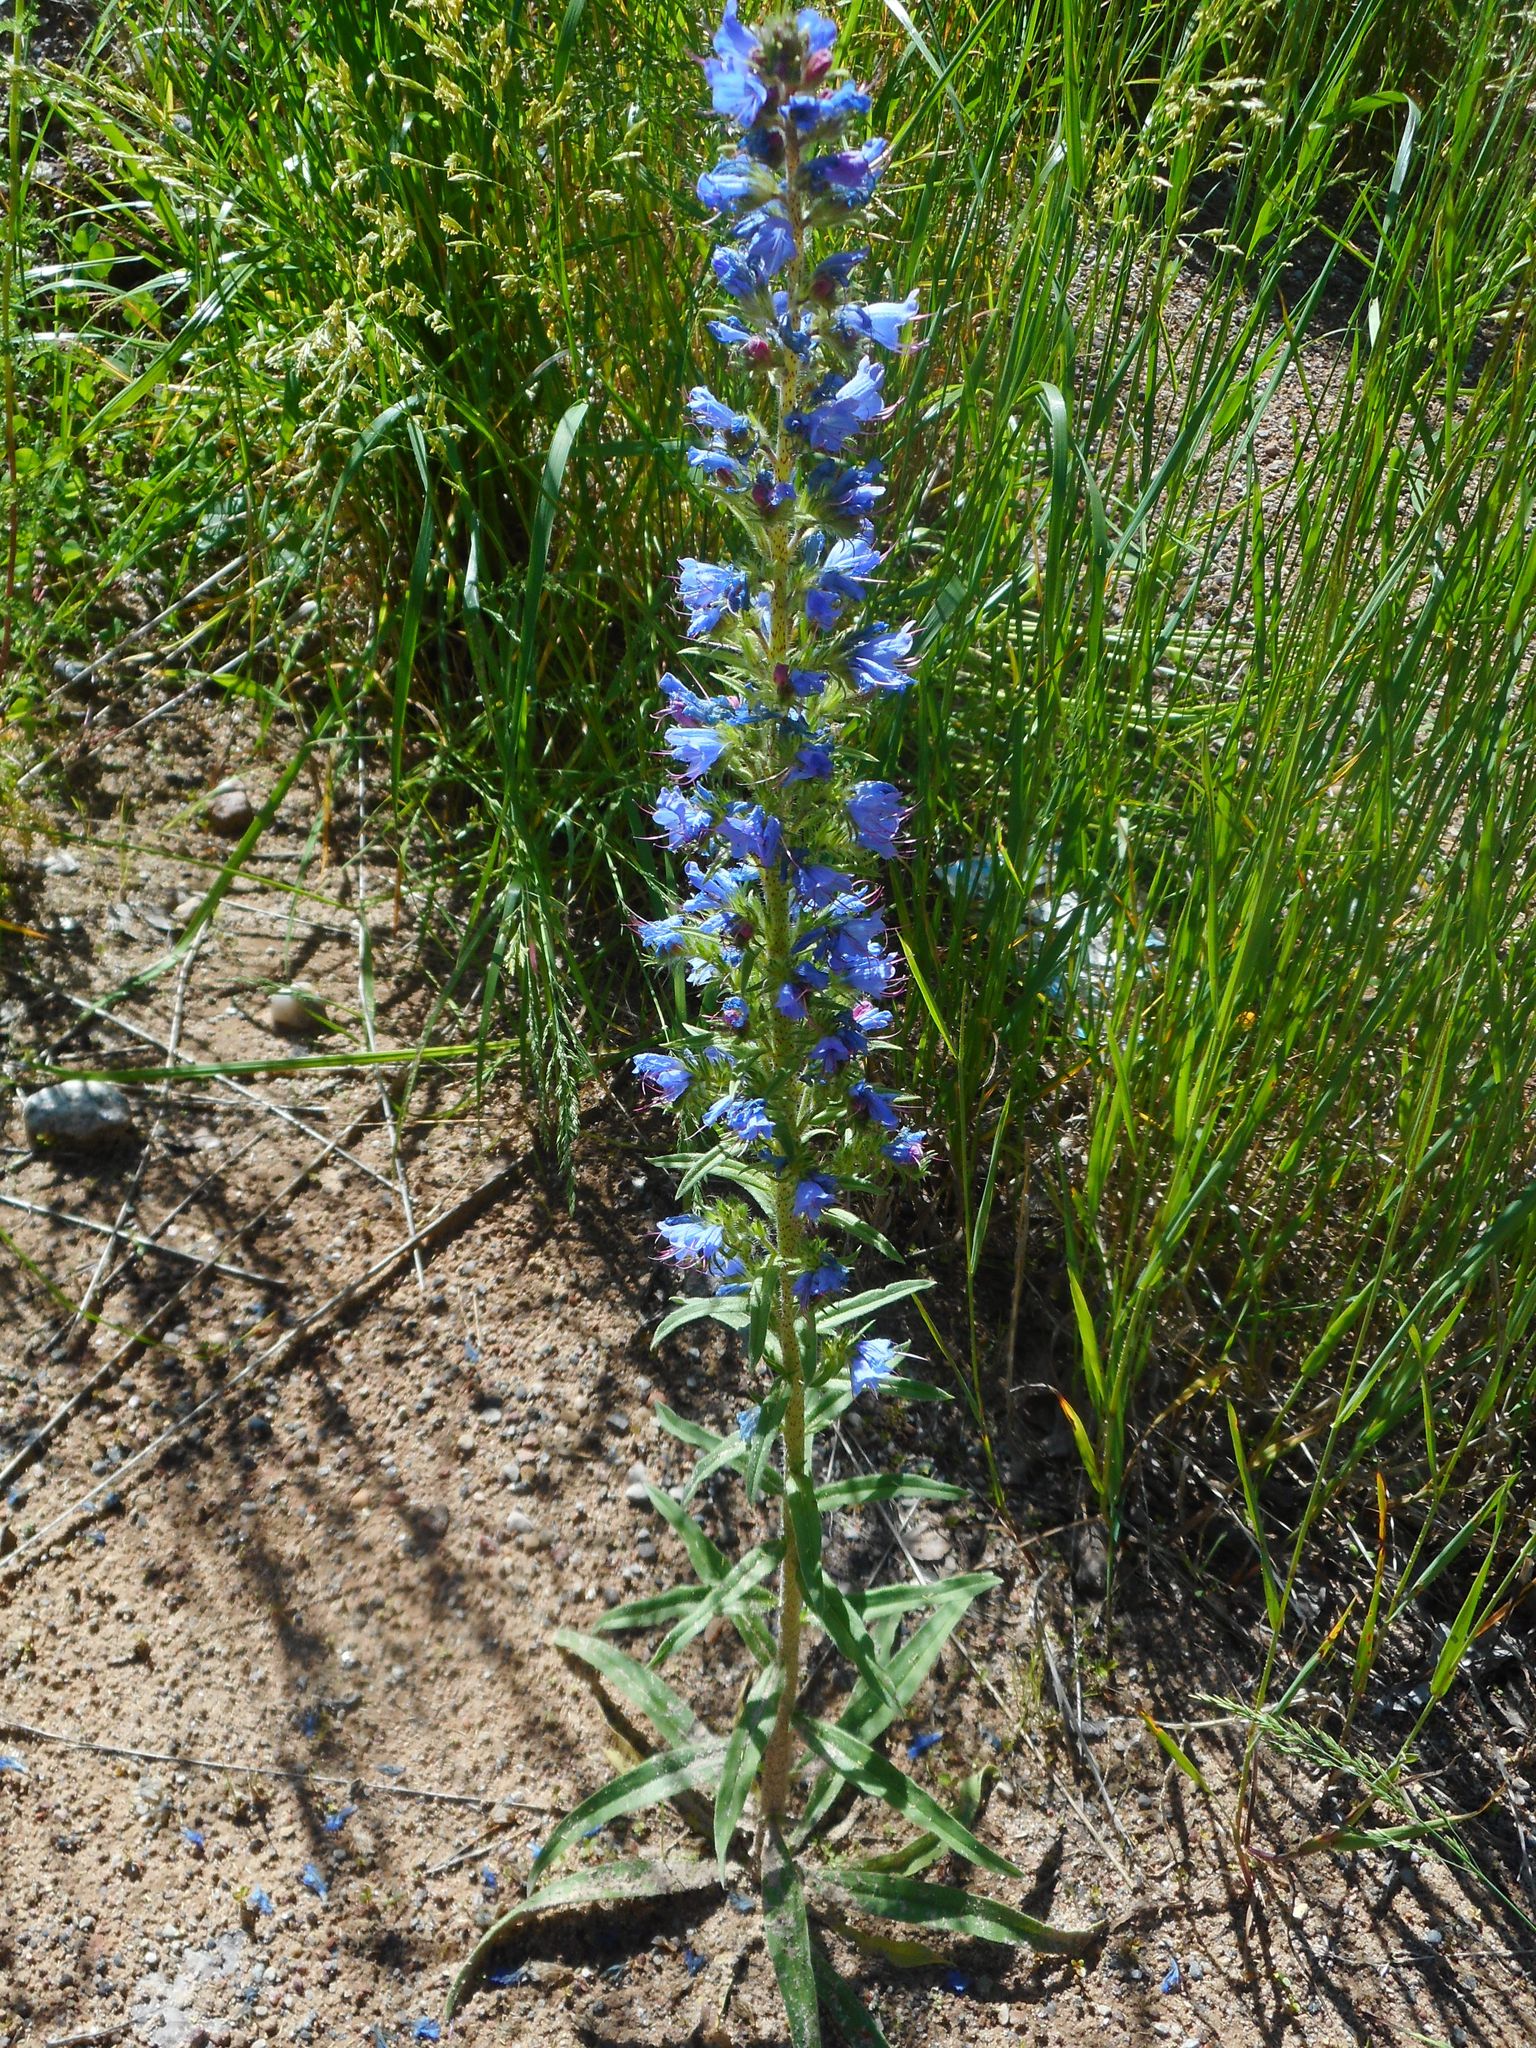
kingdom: Plantae
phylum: Tracheophyta
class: Magnoliopsida
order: Boraginales
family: Boraginaceae
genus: Echium
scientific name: Echium vulgare
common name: Common viper's bugloss
